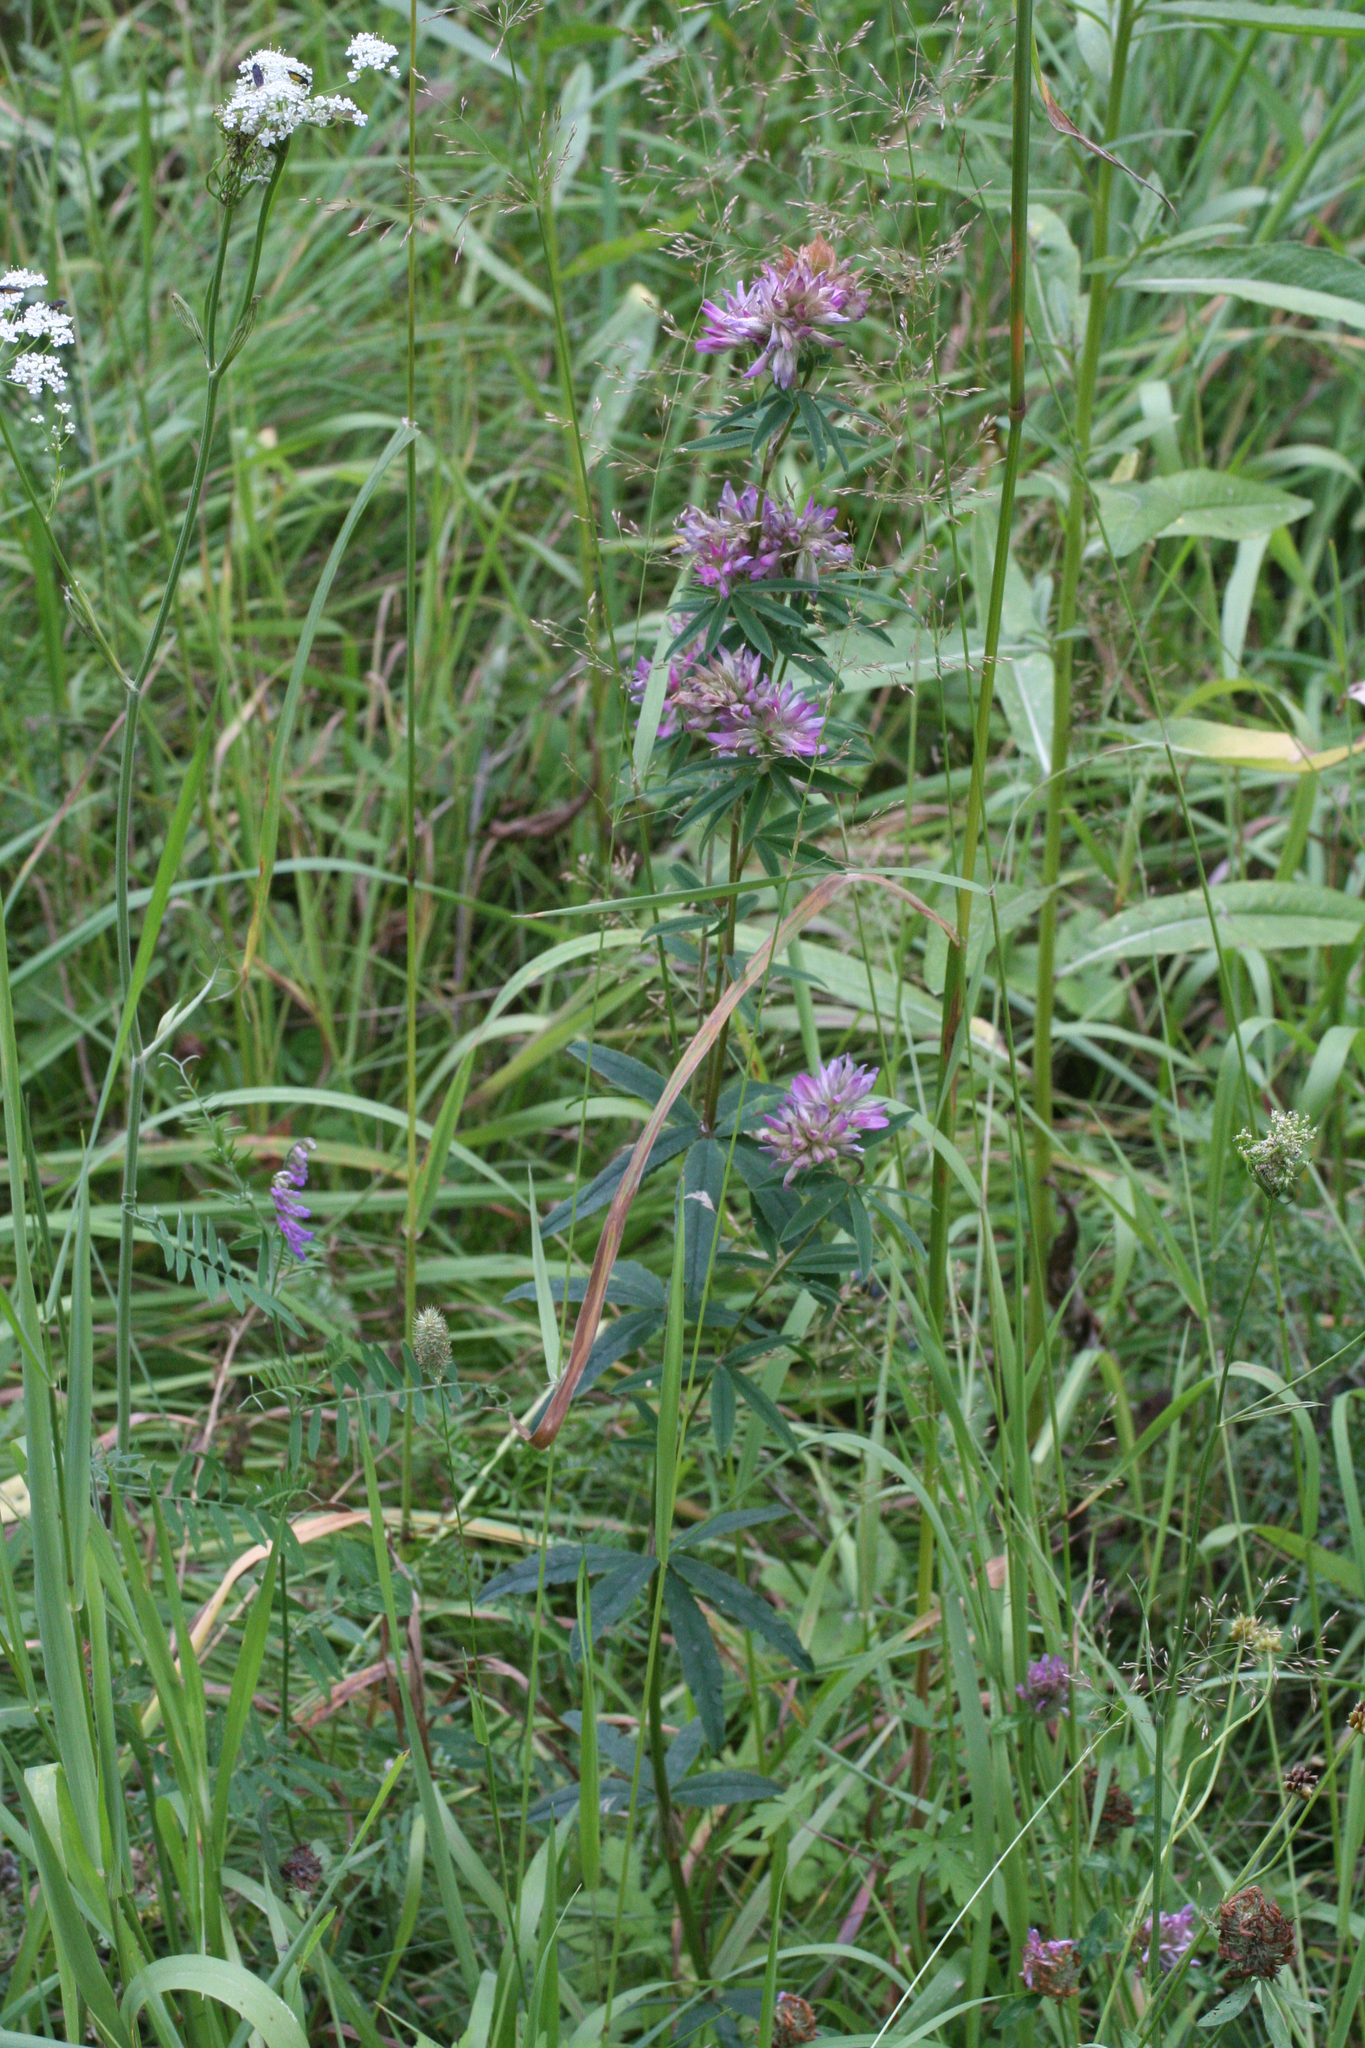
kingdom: Plantae
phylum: Tracheophyta
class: Magnoliopsida
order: Fabales
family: Fabaceae
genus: Trifolium
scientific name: Trifolium lupinaster
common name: Lupine clover
